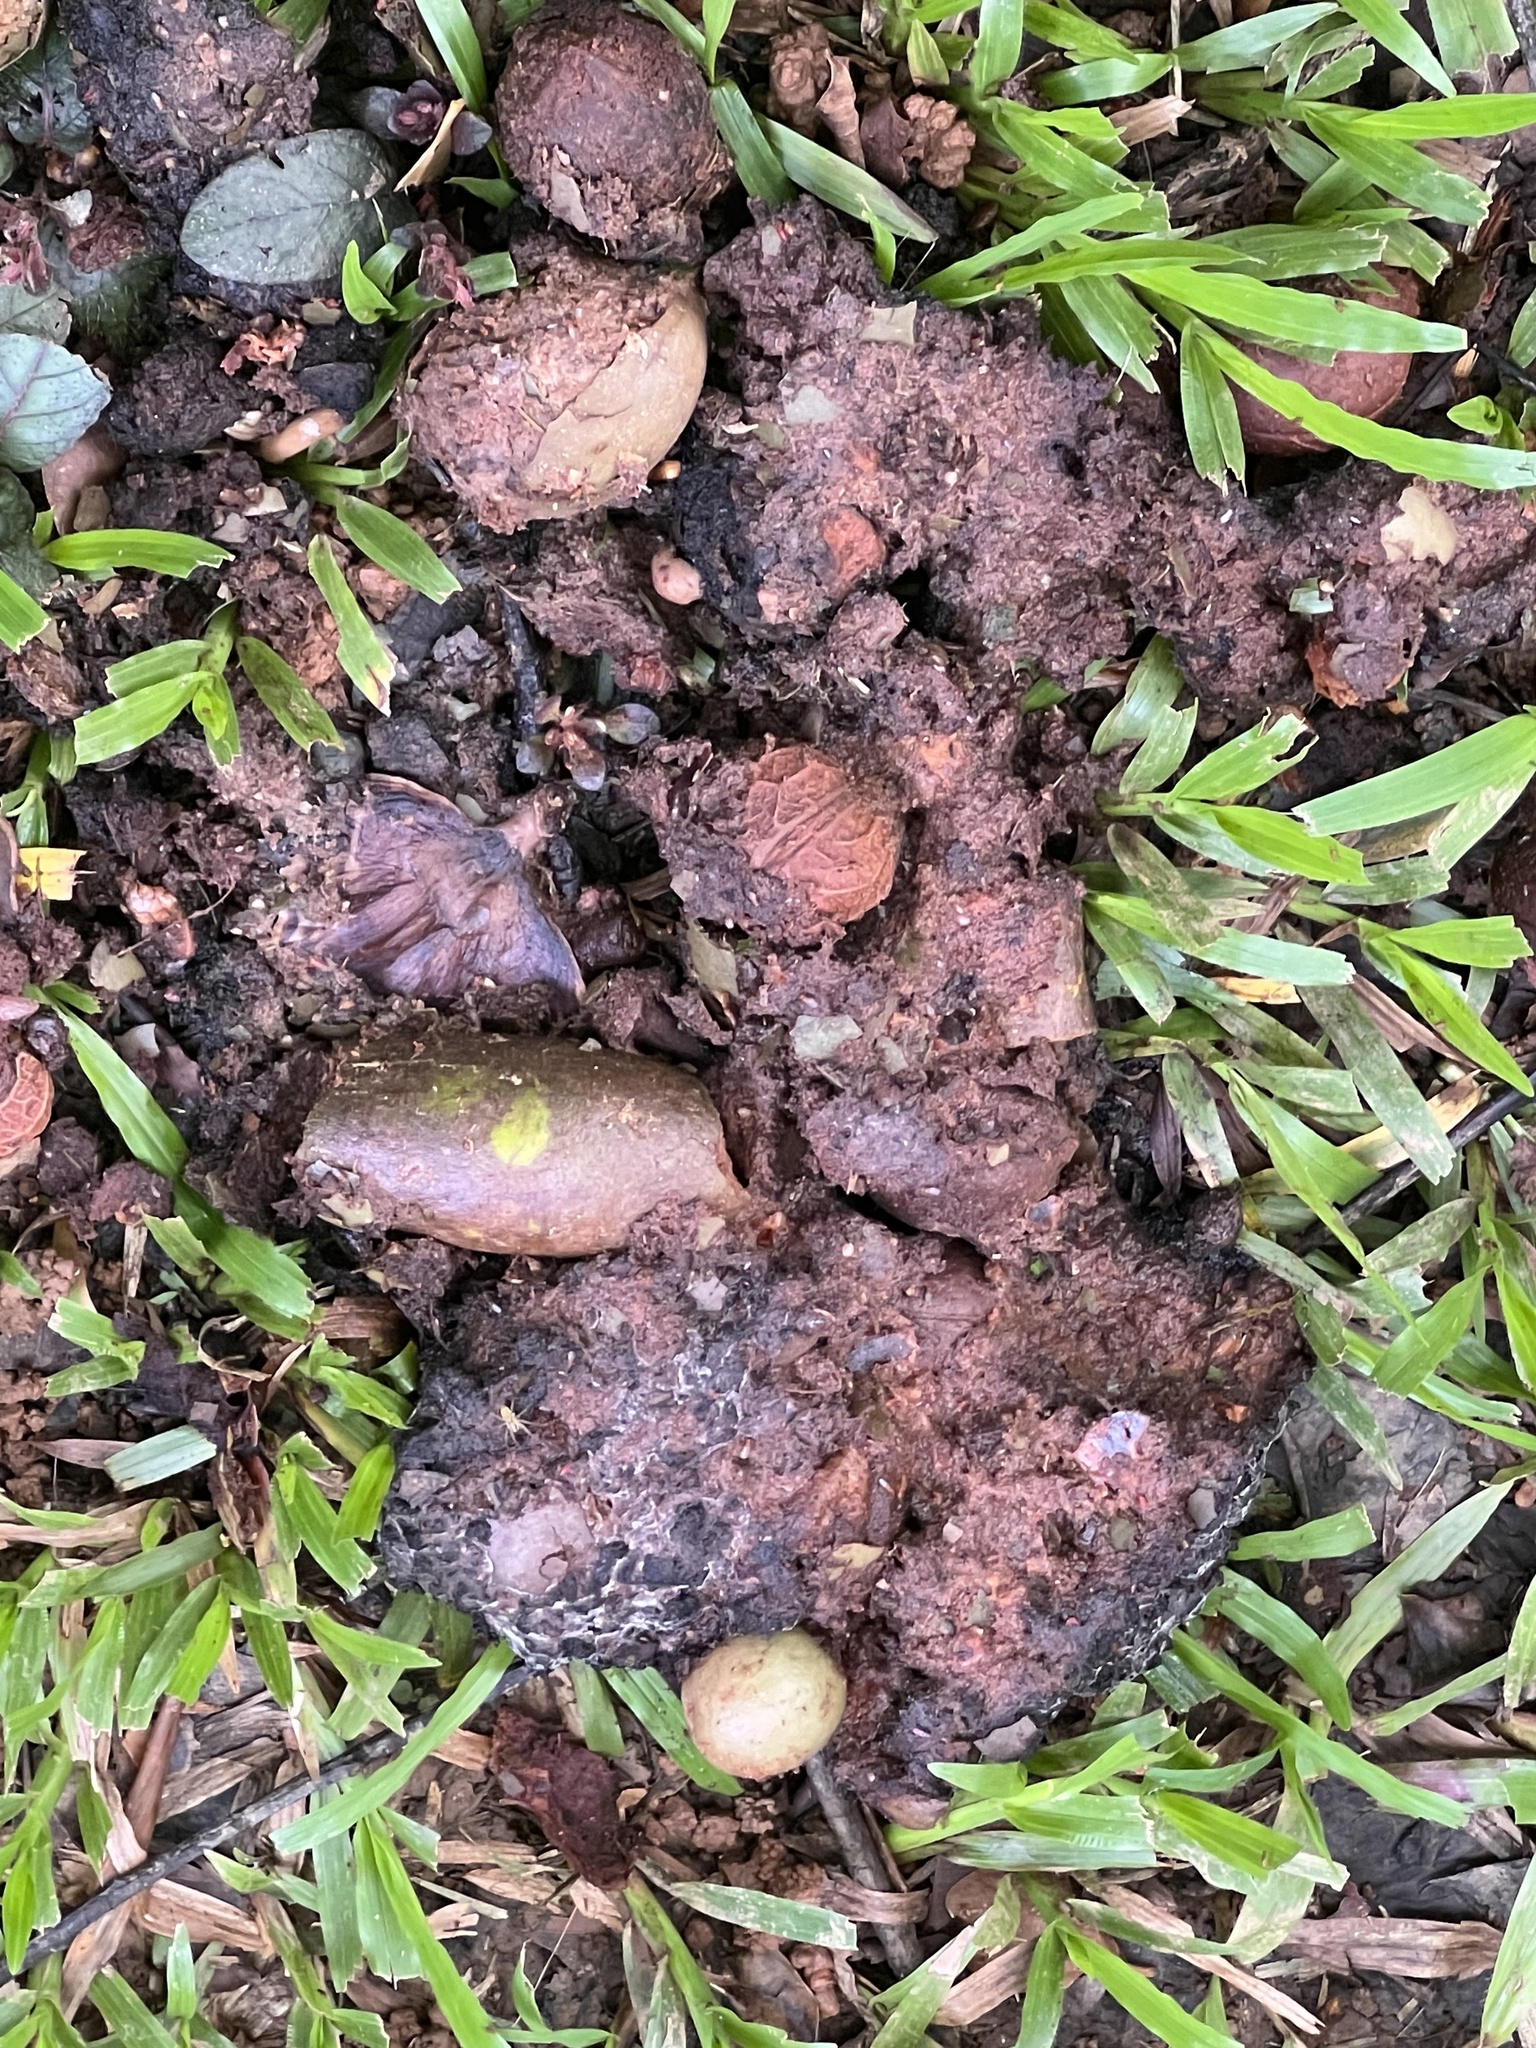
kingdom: Animalia
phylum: Chordata
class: Aves
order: Casuariiformes
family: Casuariidae
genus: Casuarius
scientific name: Casuarius casuarius
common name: Southern cassowary
